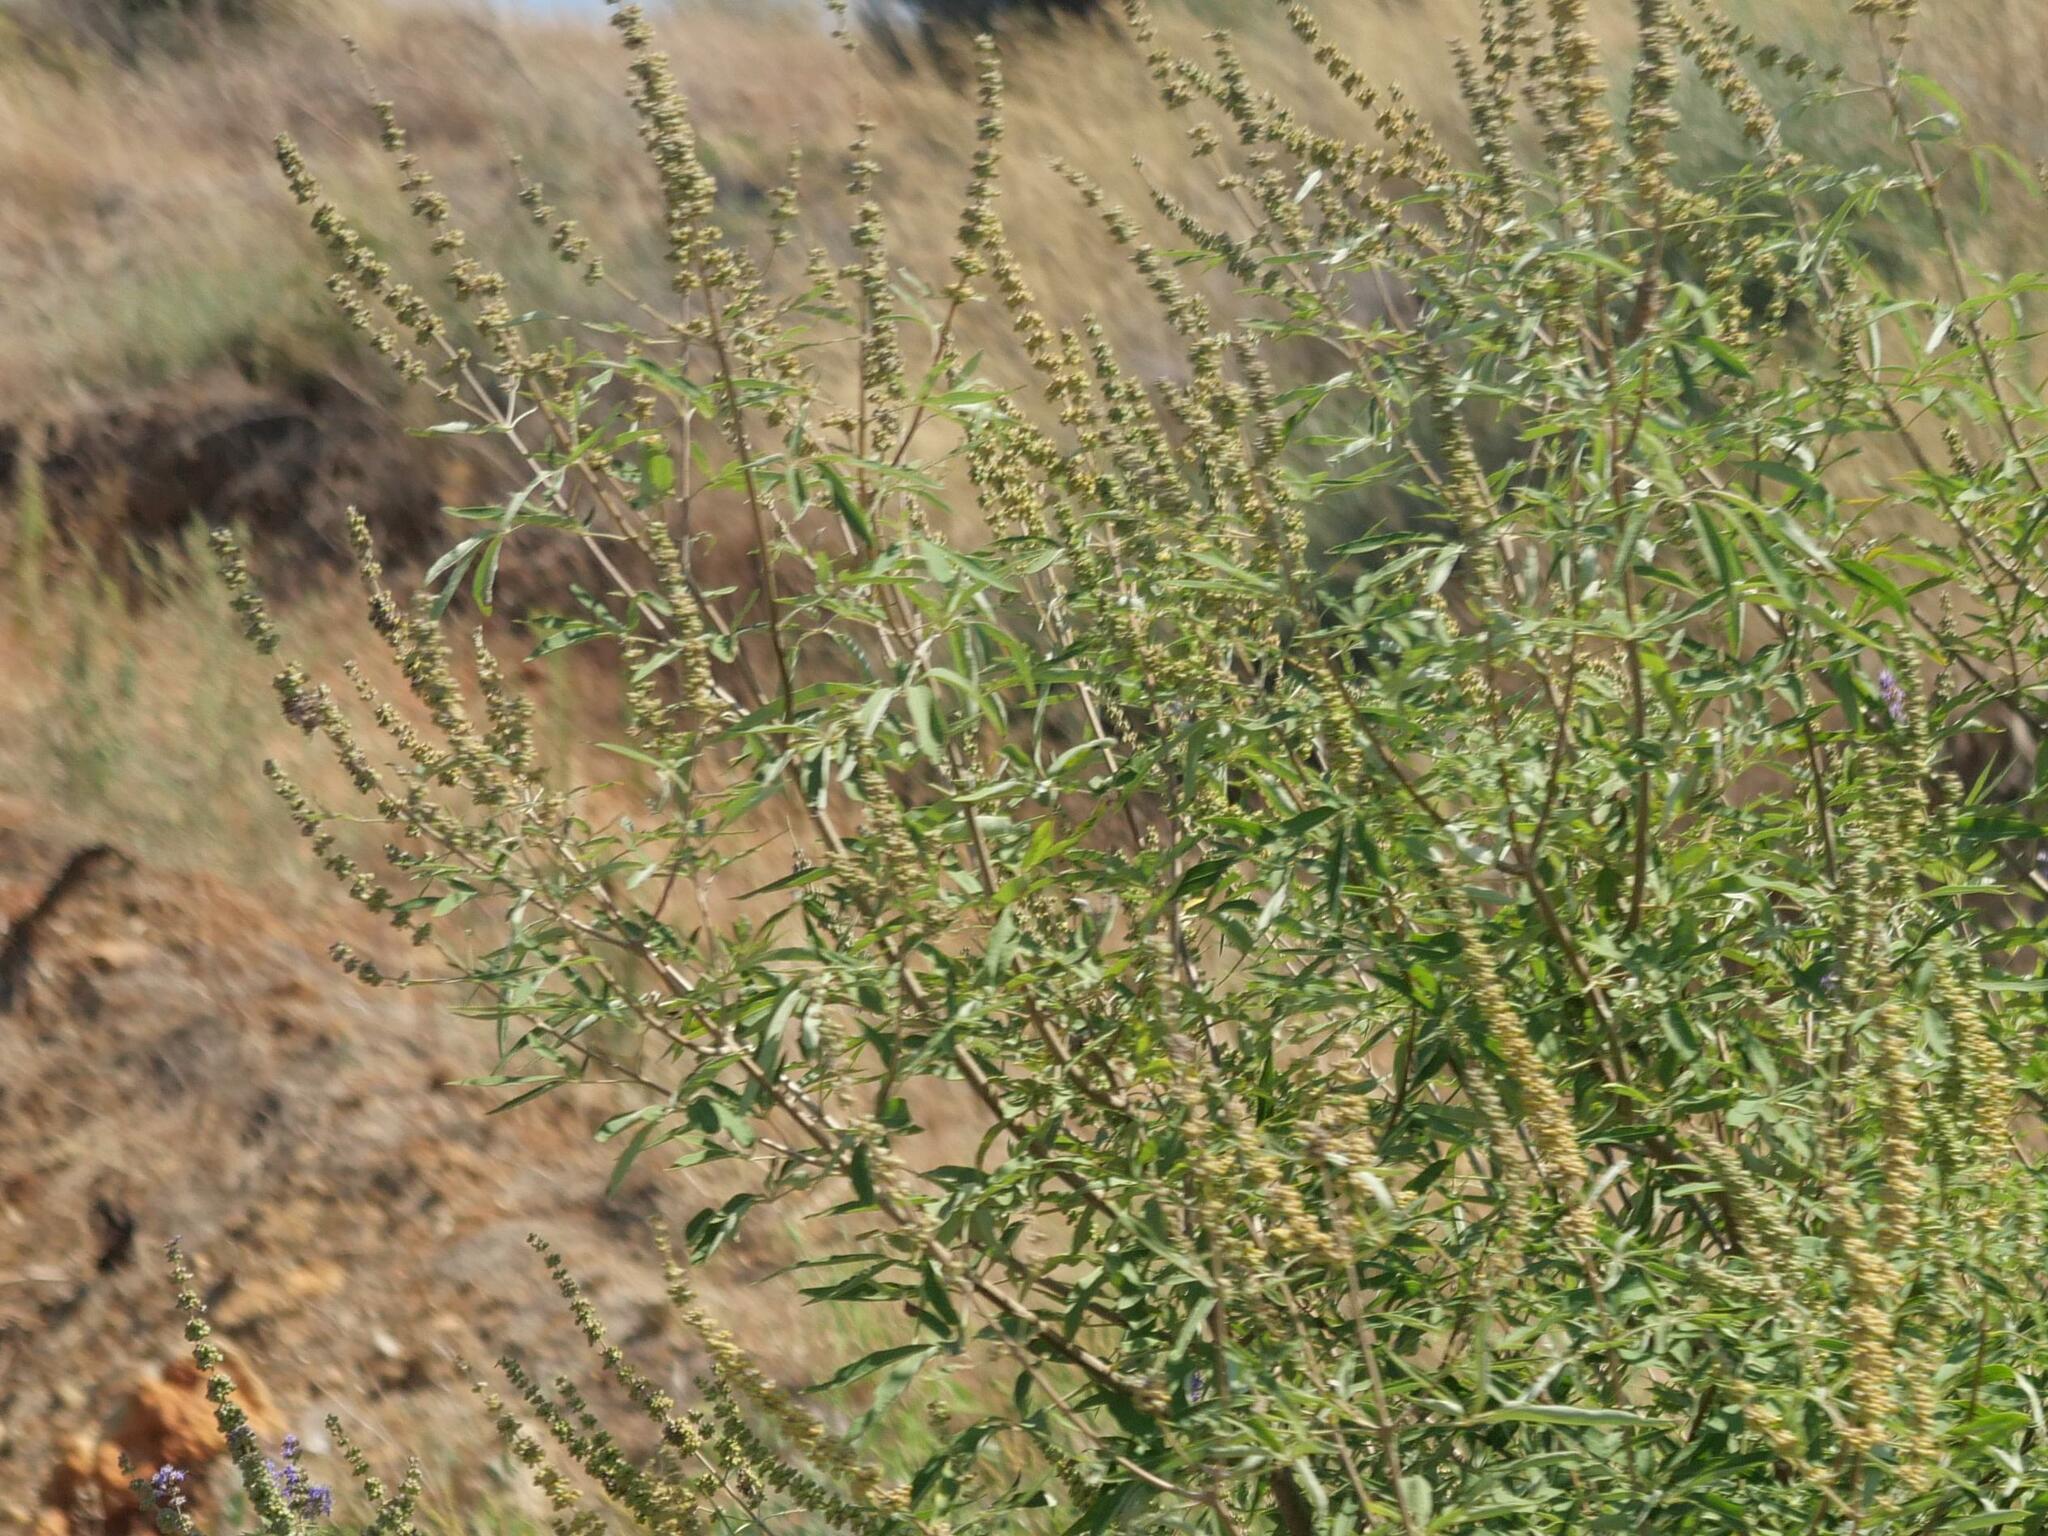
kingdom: Plantae
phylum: Tracheophyta
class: Magnoliopsida
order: Lamiales
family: Lamiaceae
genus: Vitex
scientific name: Vitex agnus-castus
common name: Chasteberry
